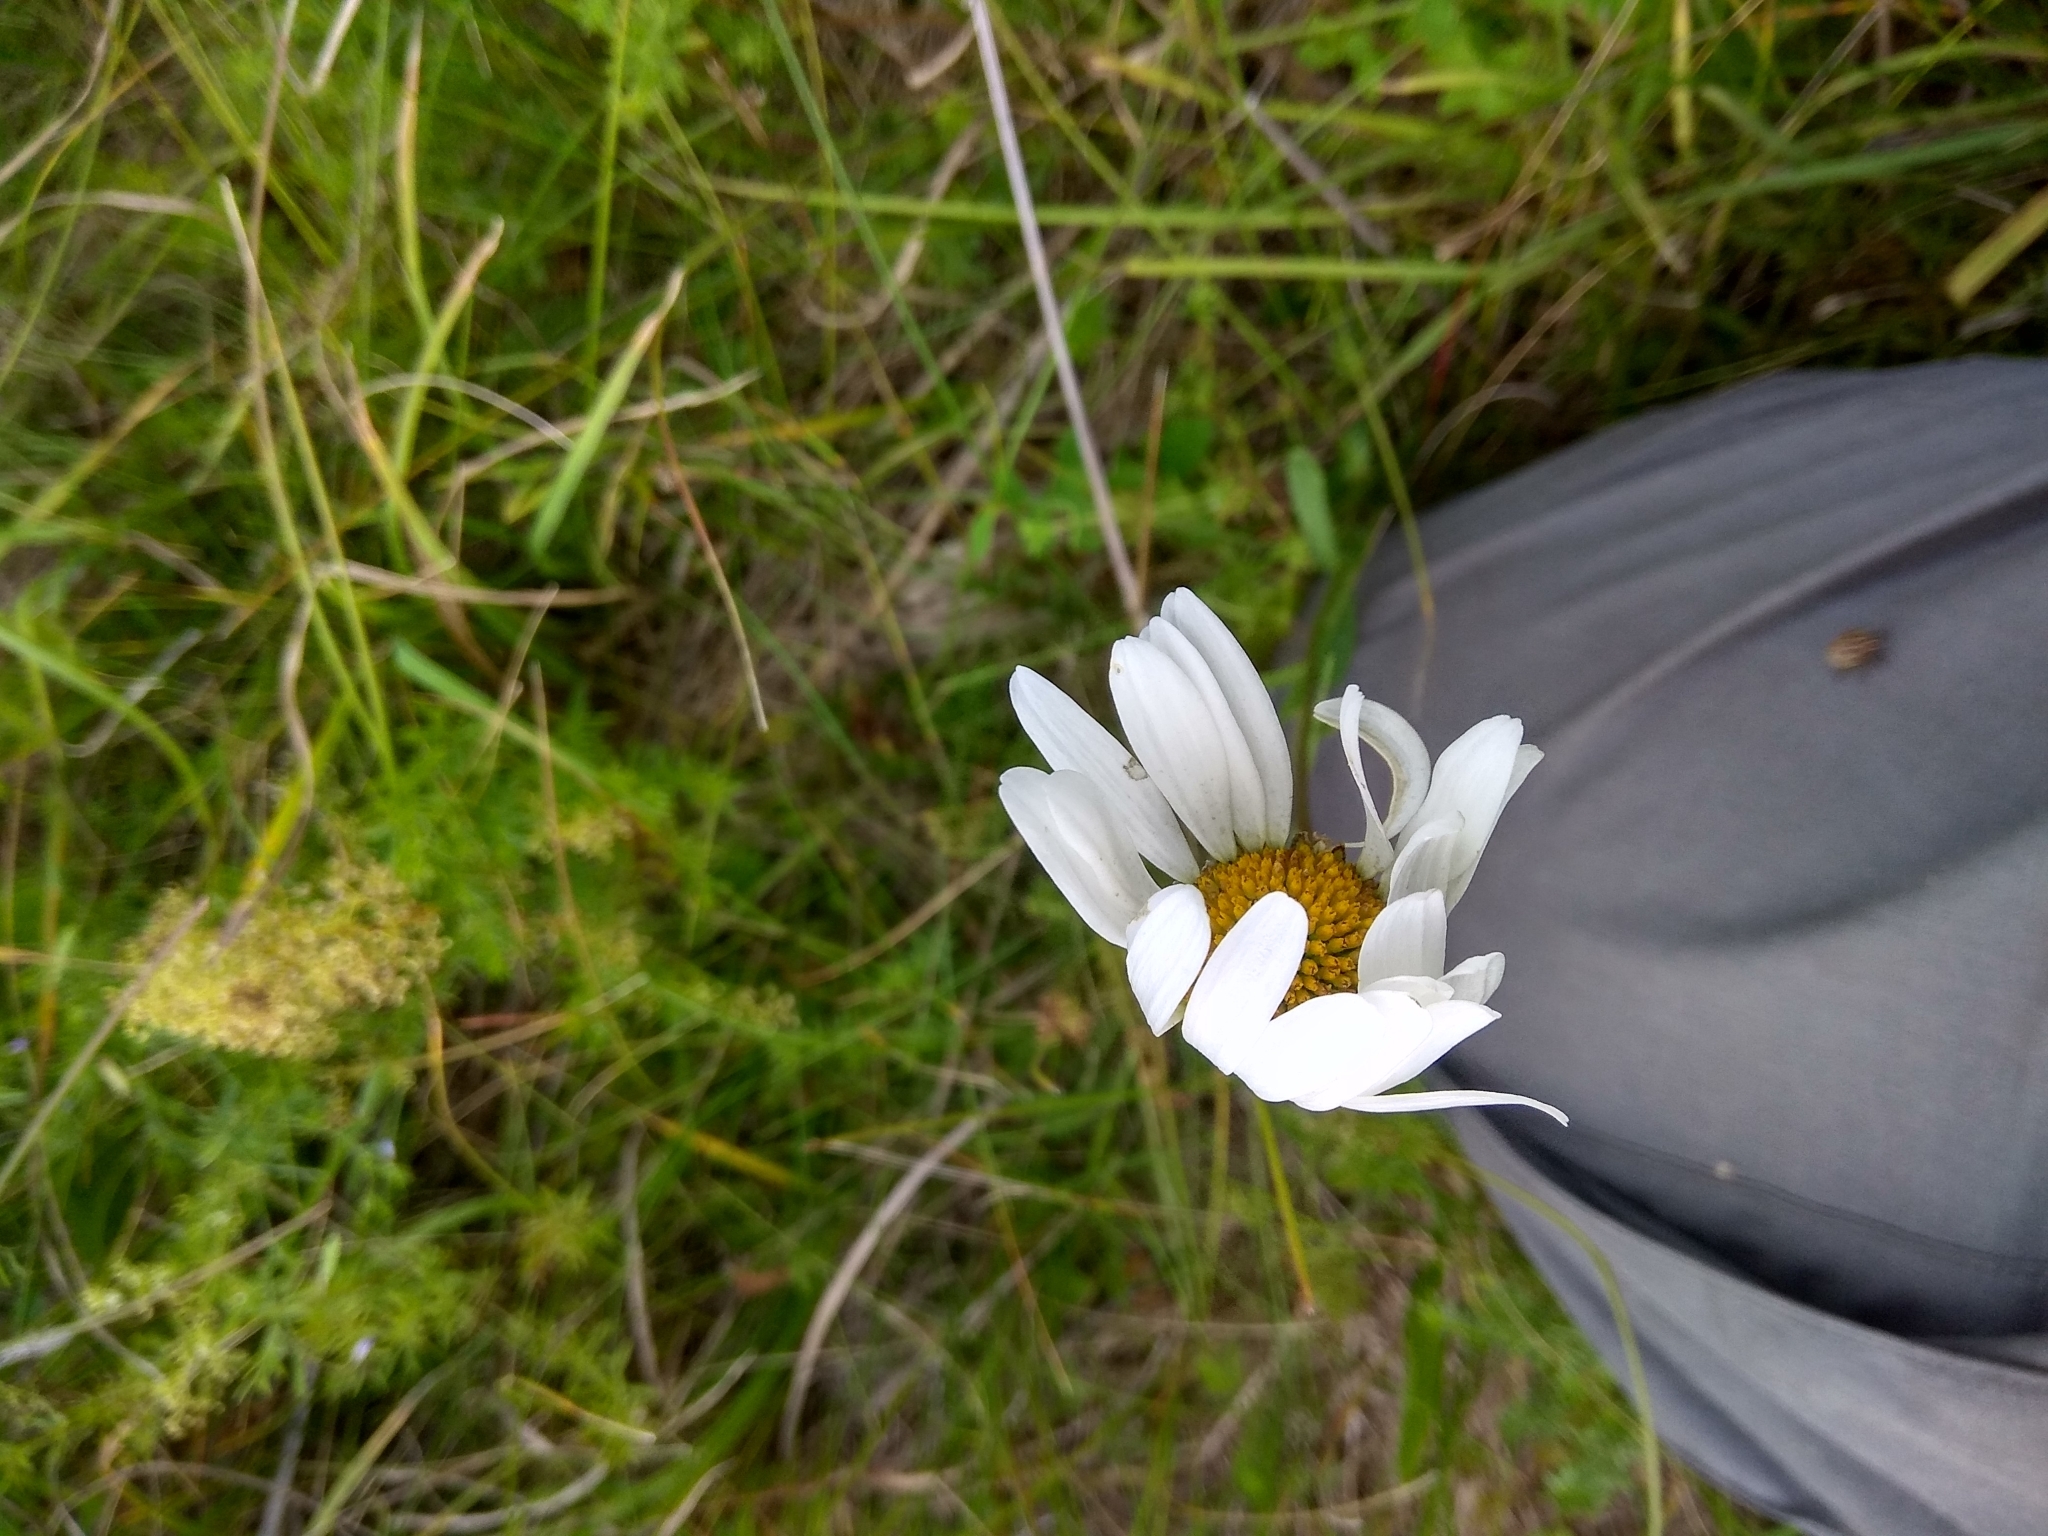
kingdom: Plantae
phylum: Tracheophyta
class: Magnoliopsida
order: Asterales
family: Asteraceae
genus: Leucanthemum
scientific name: Leucanthemum vulgare
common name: Oxeye daisy
